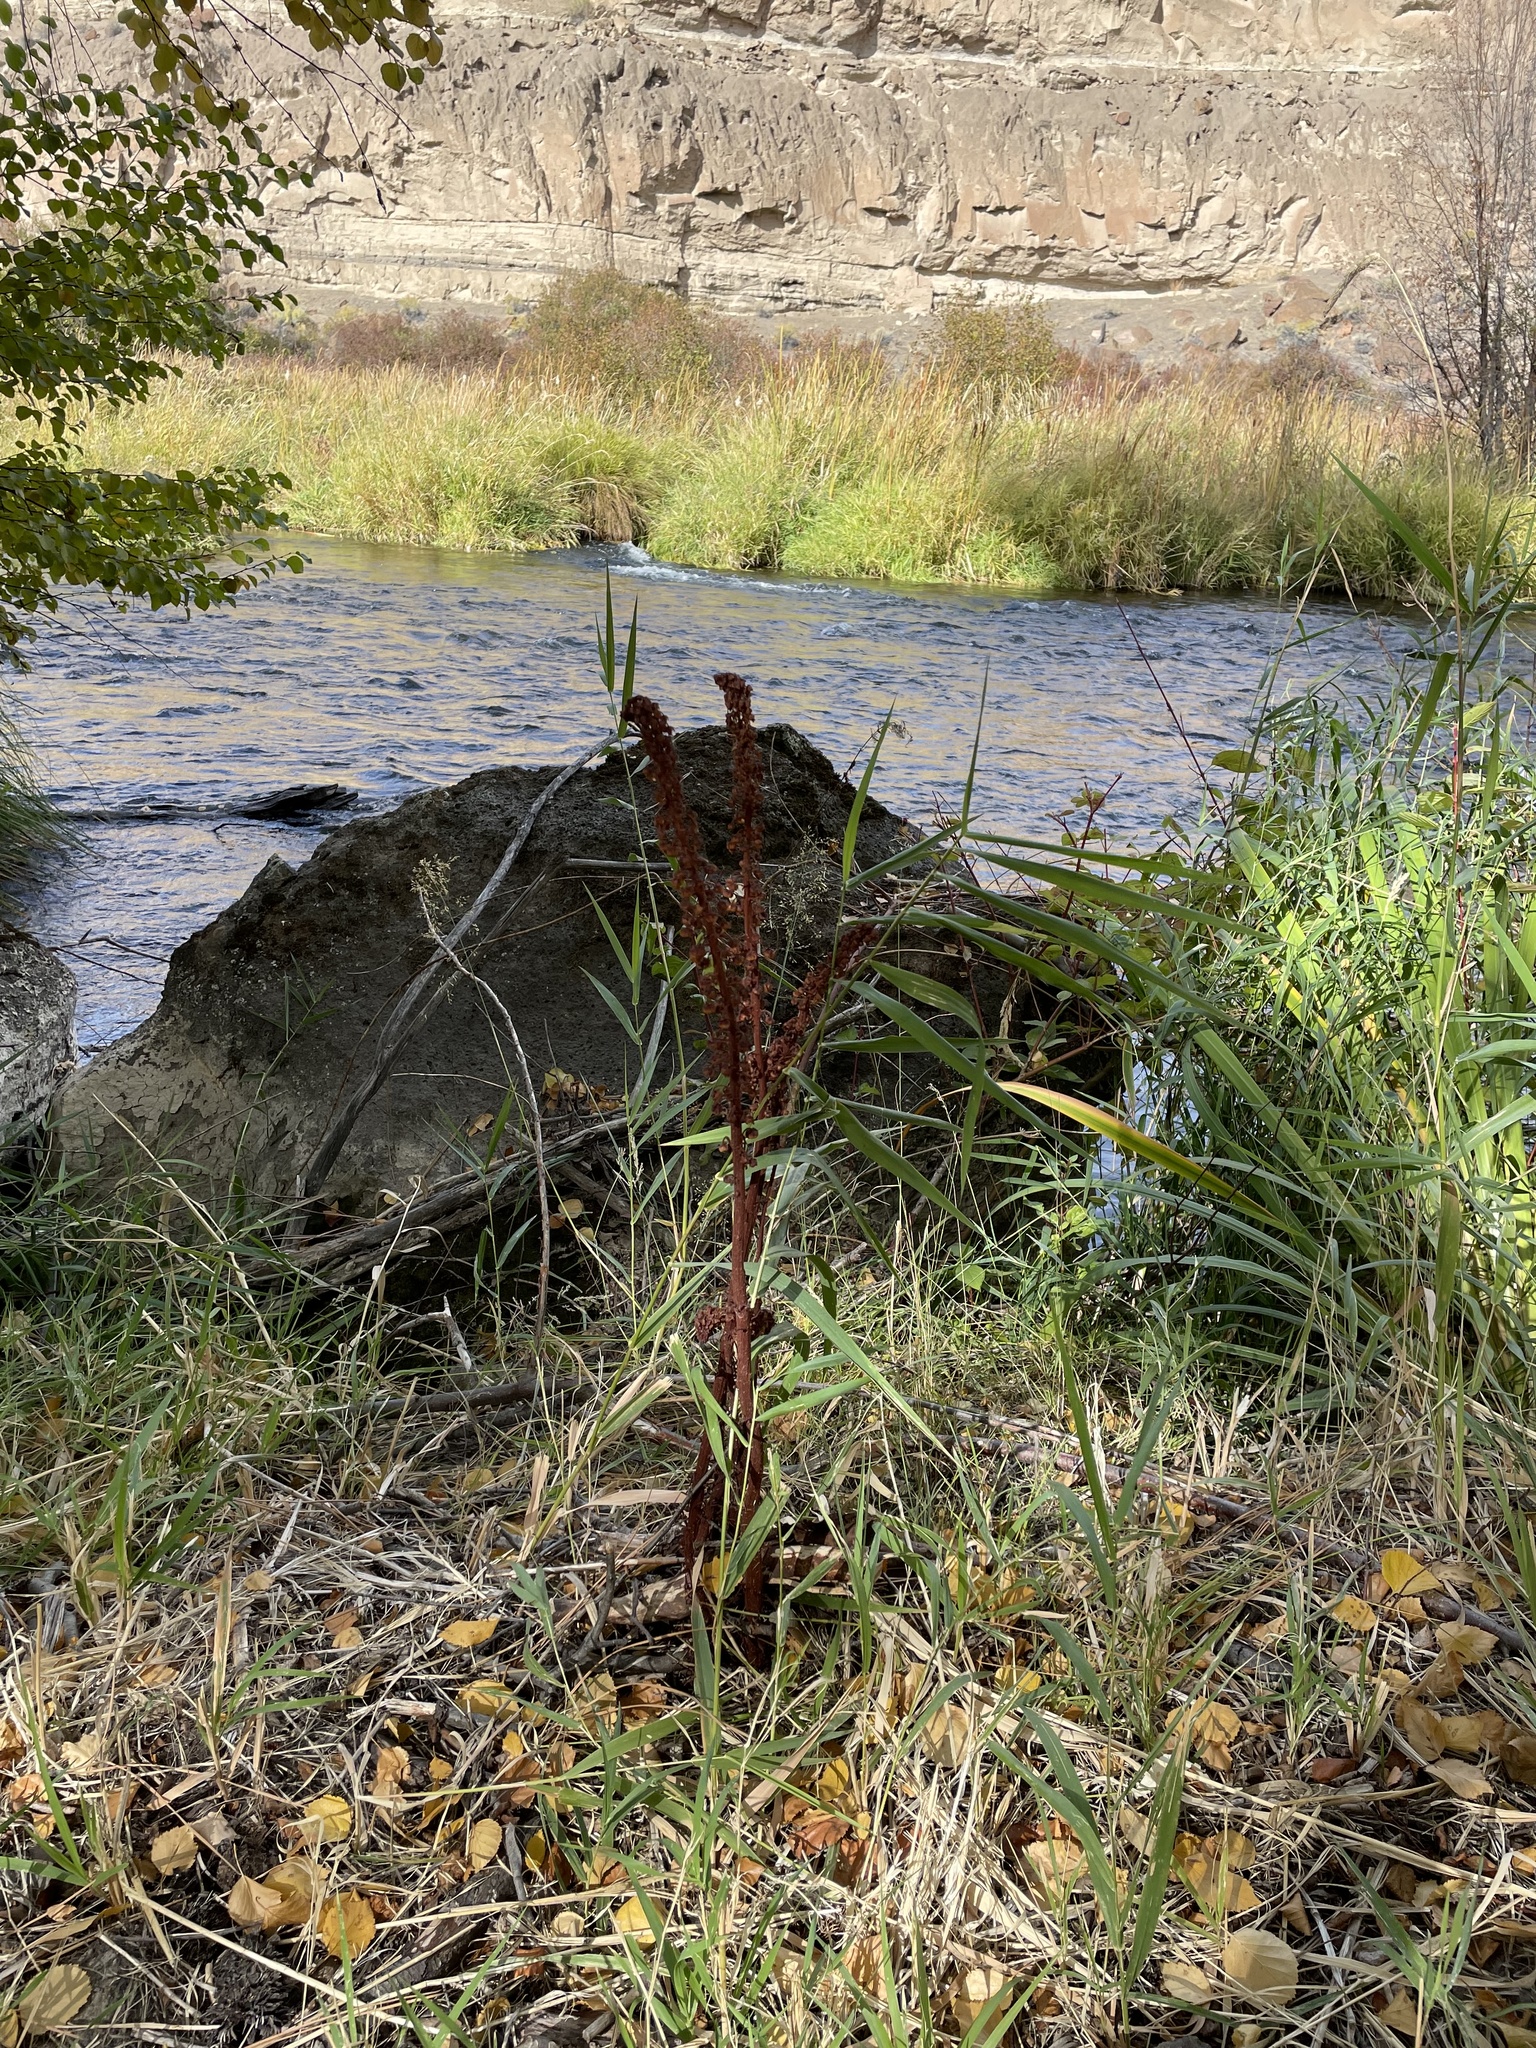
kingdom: Plantae
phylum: Tracheophyta
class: Magnoliopsida
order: Ericales
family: Ericaceae
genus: Pterospora
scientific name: Pterospora andromedea
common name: Giant bird's-nest
